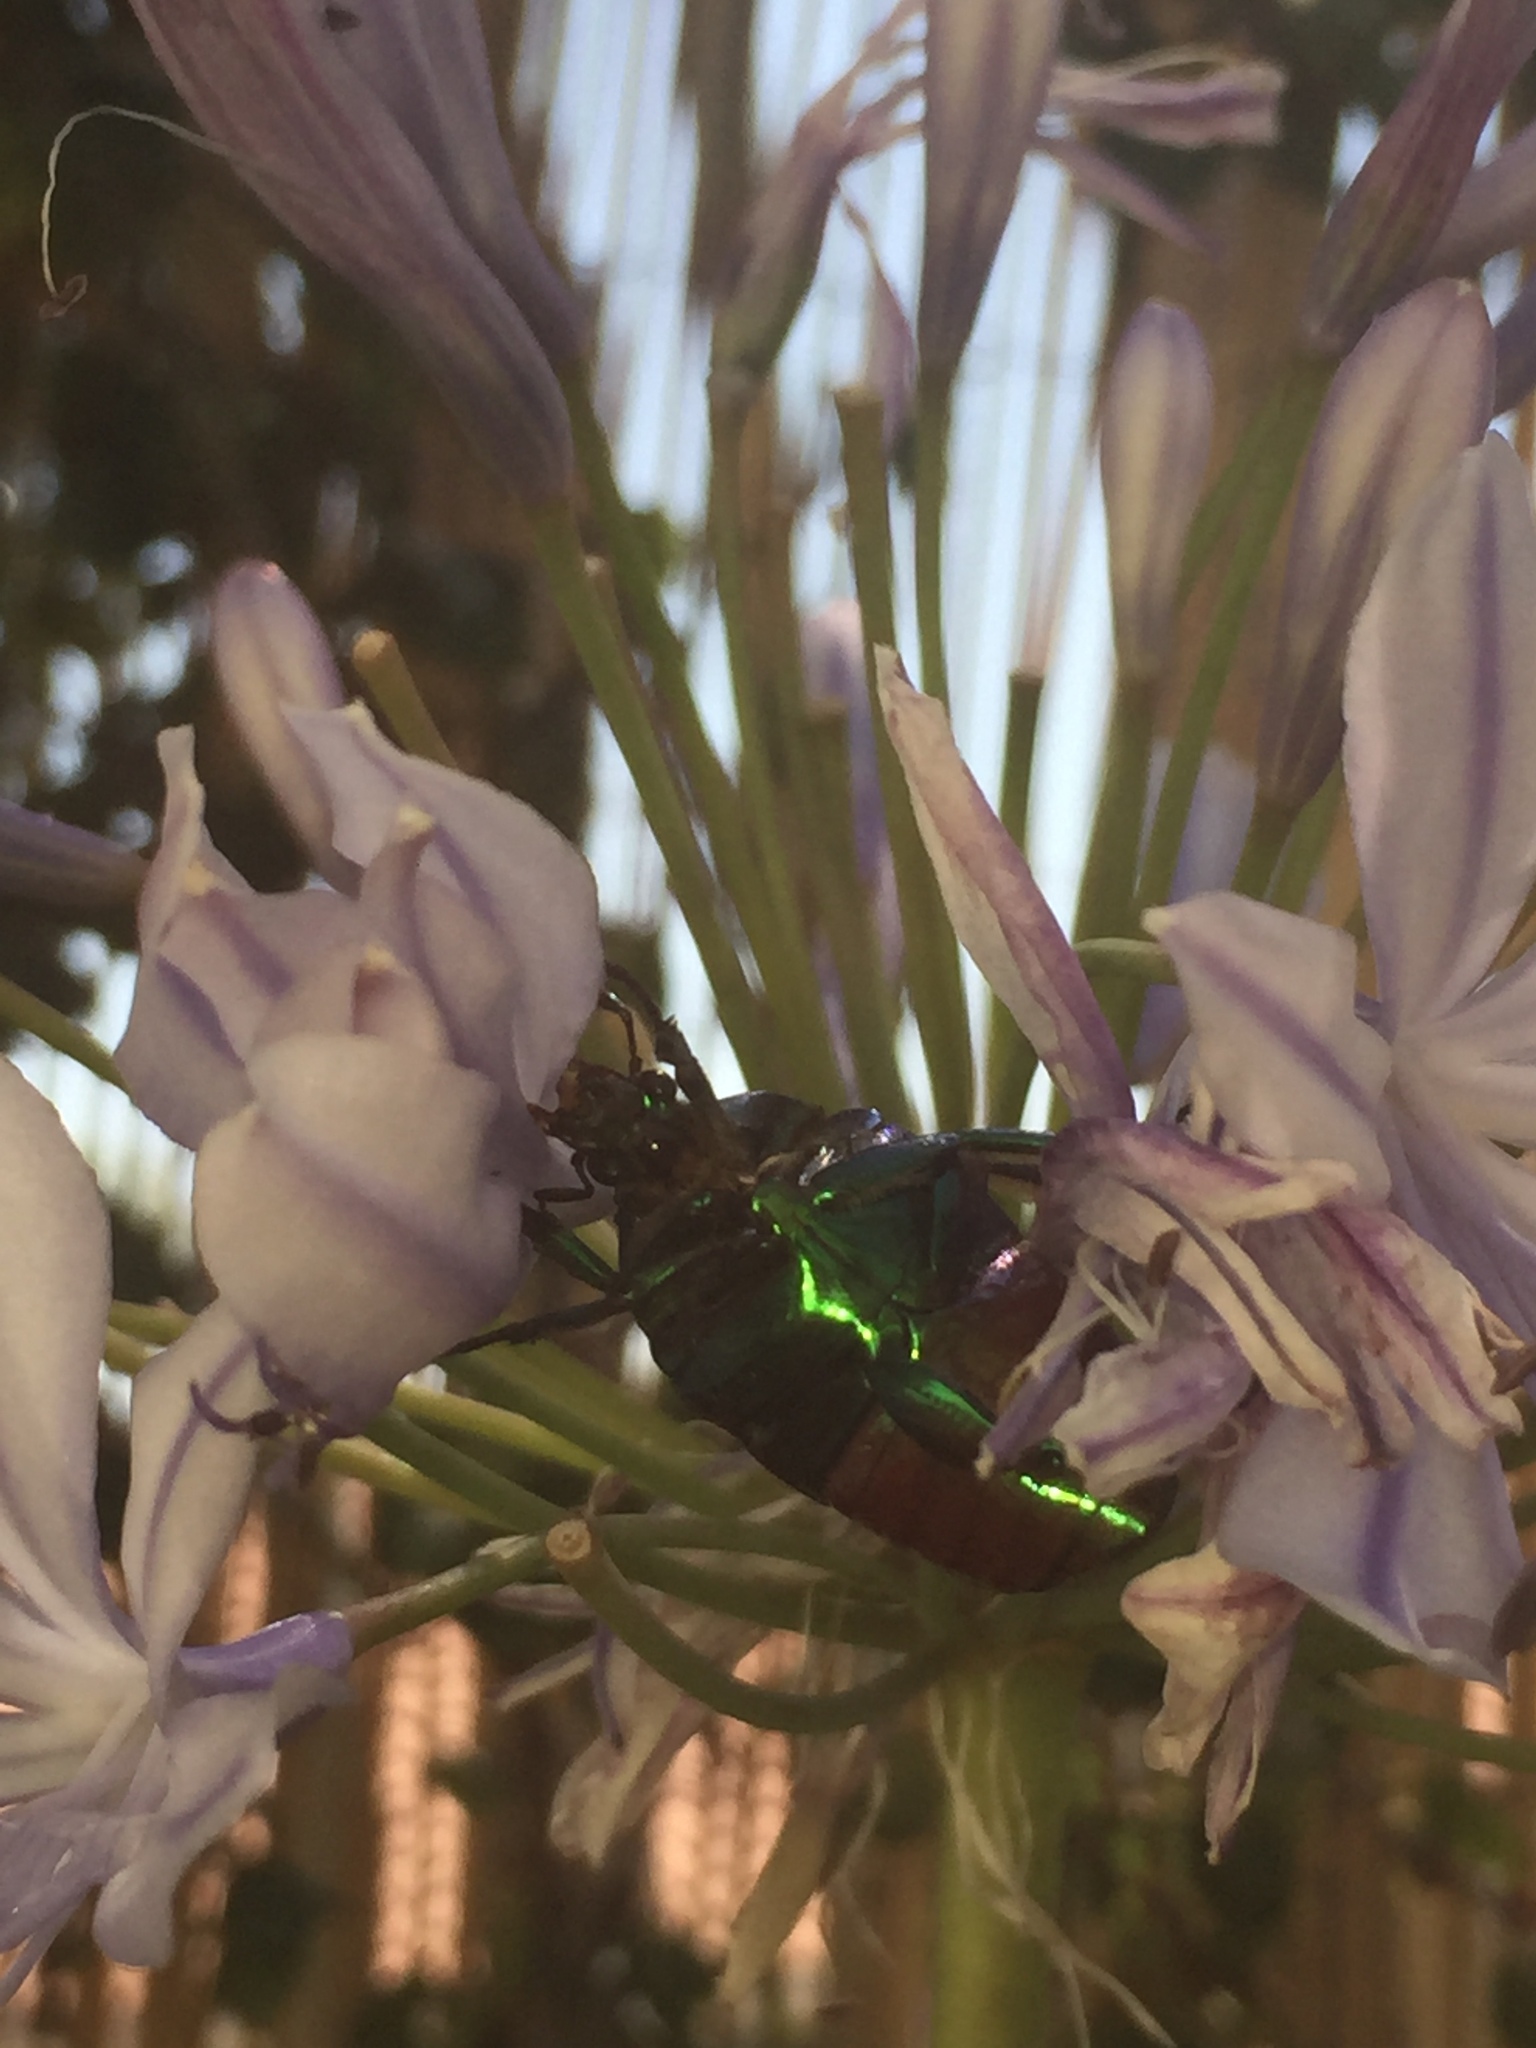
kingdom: Animalia
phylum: Arthropoda
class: Insecta
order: Coleoptera
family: Scarabaeidae
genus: Cotinis
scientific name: Cotinis mutabilis
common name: Figeater beetle
